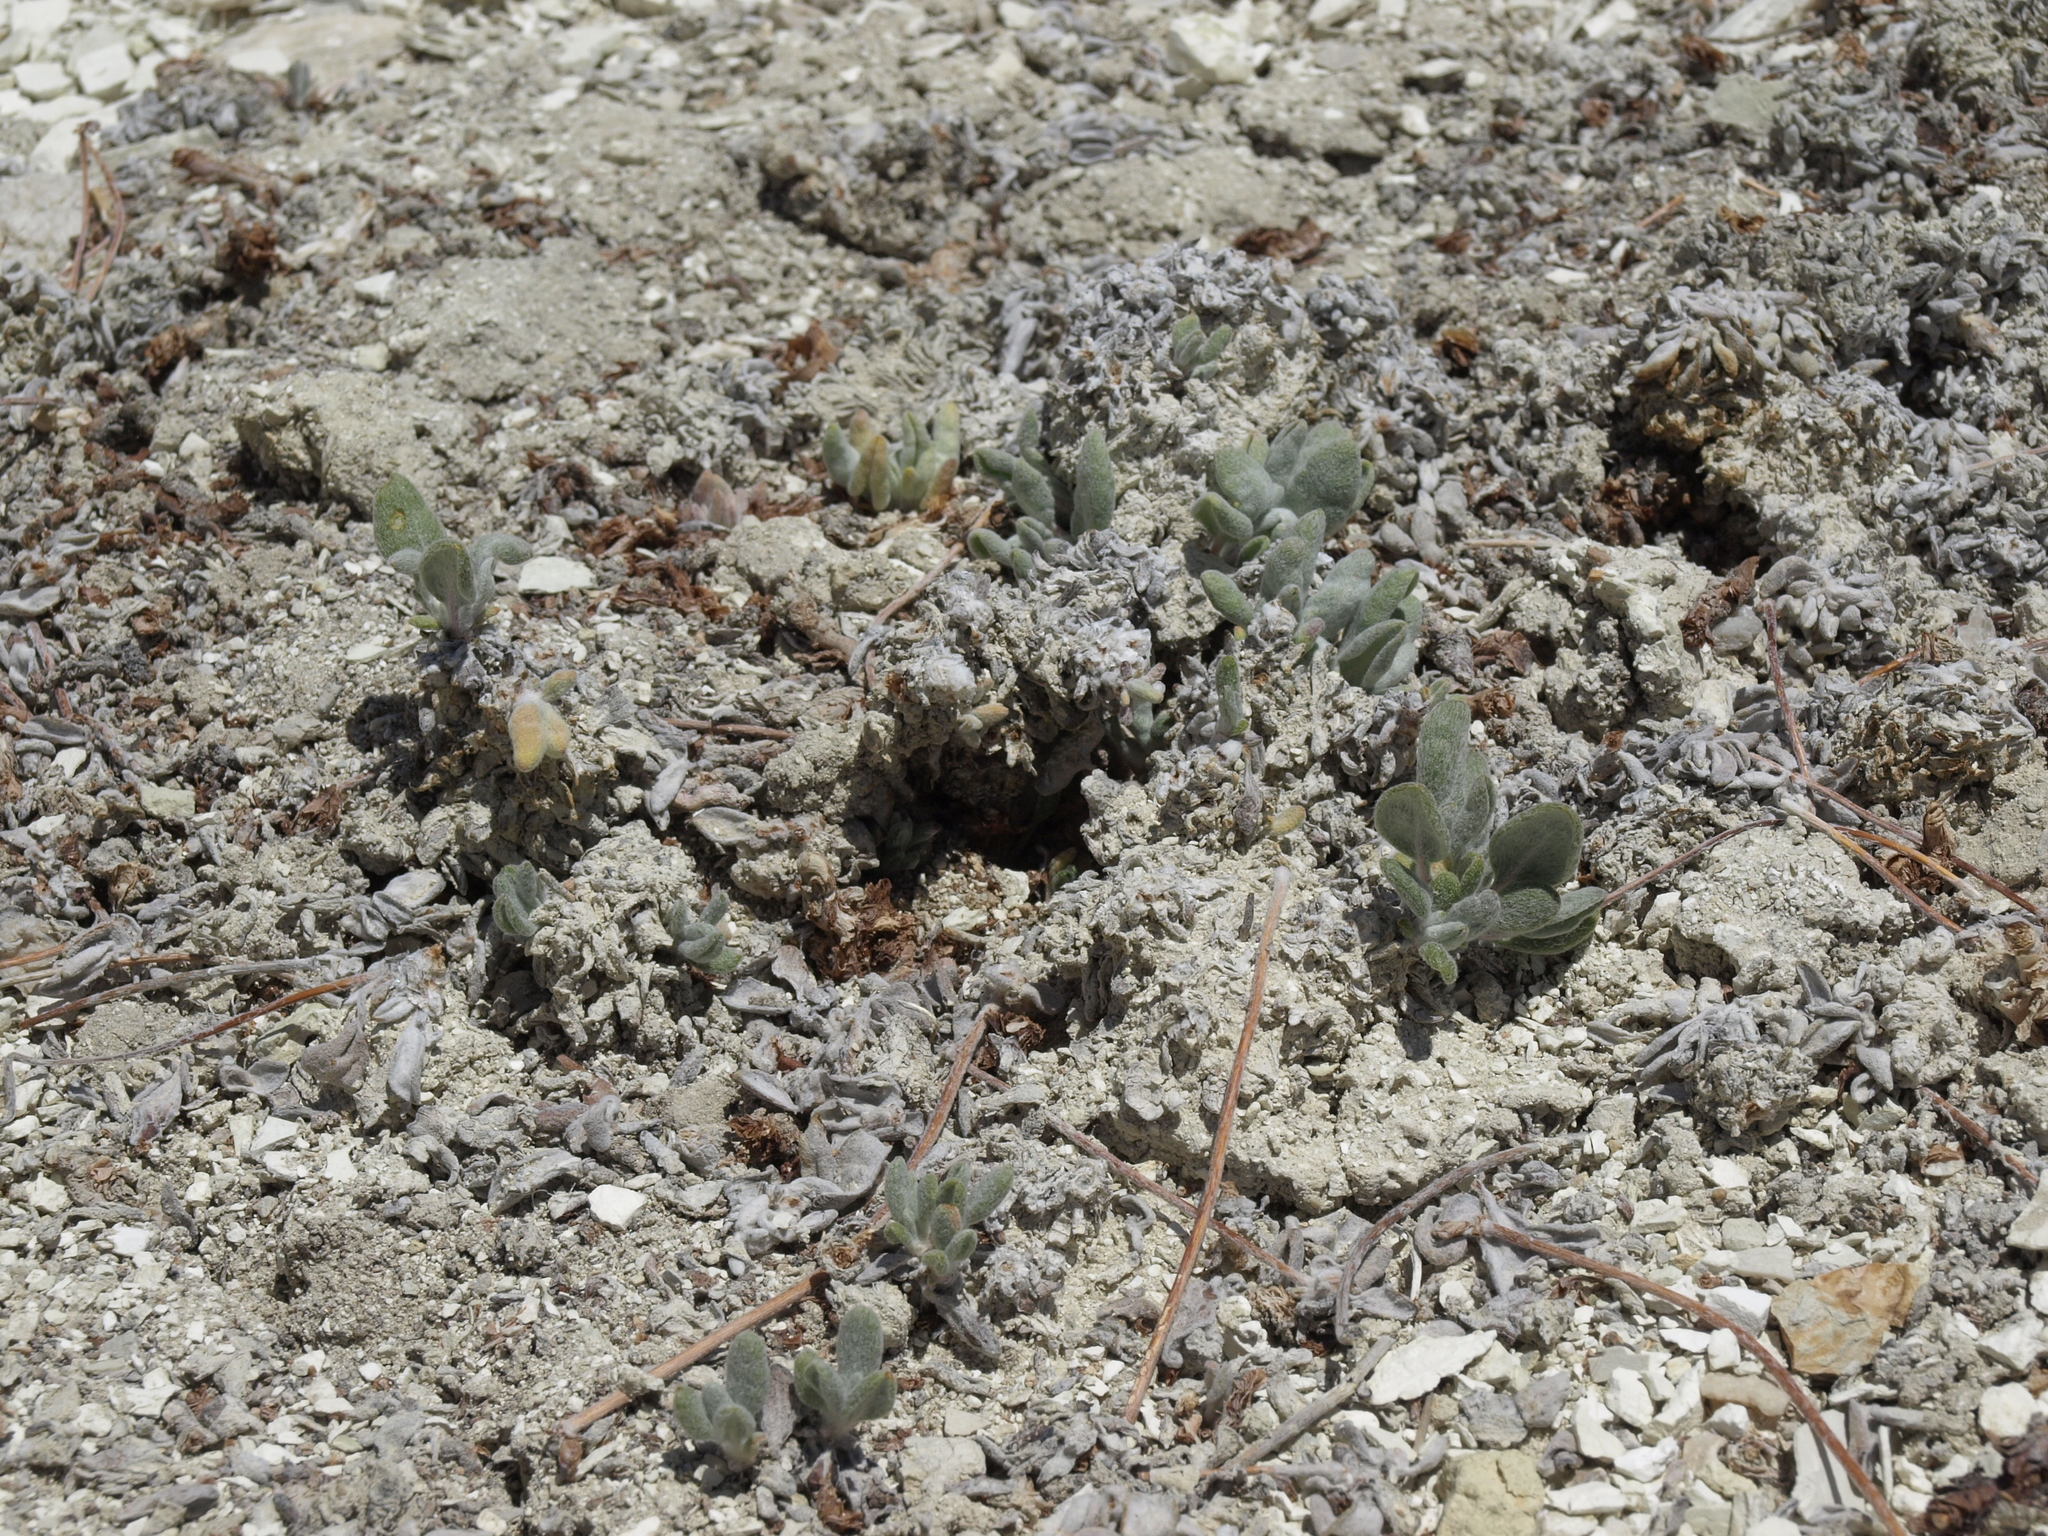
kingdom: Plantae
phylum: Tracheophyta
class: Magnoliopsida
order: Caryophyllales
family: Polygonaceae
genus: Eriogonum
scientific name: Eriogonum tiehmii
